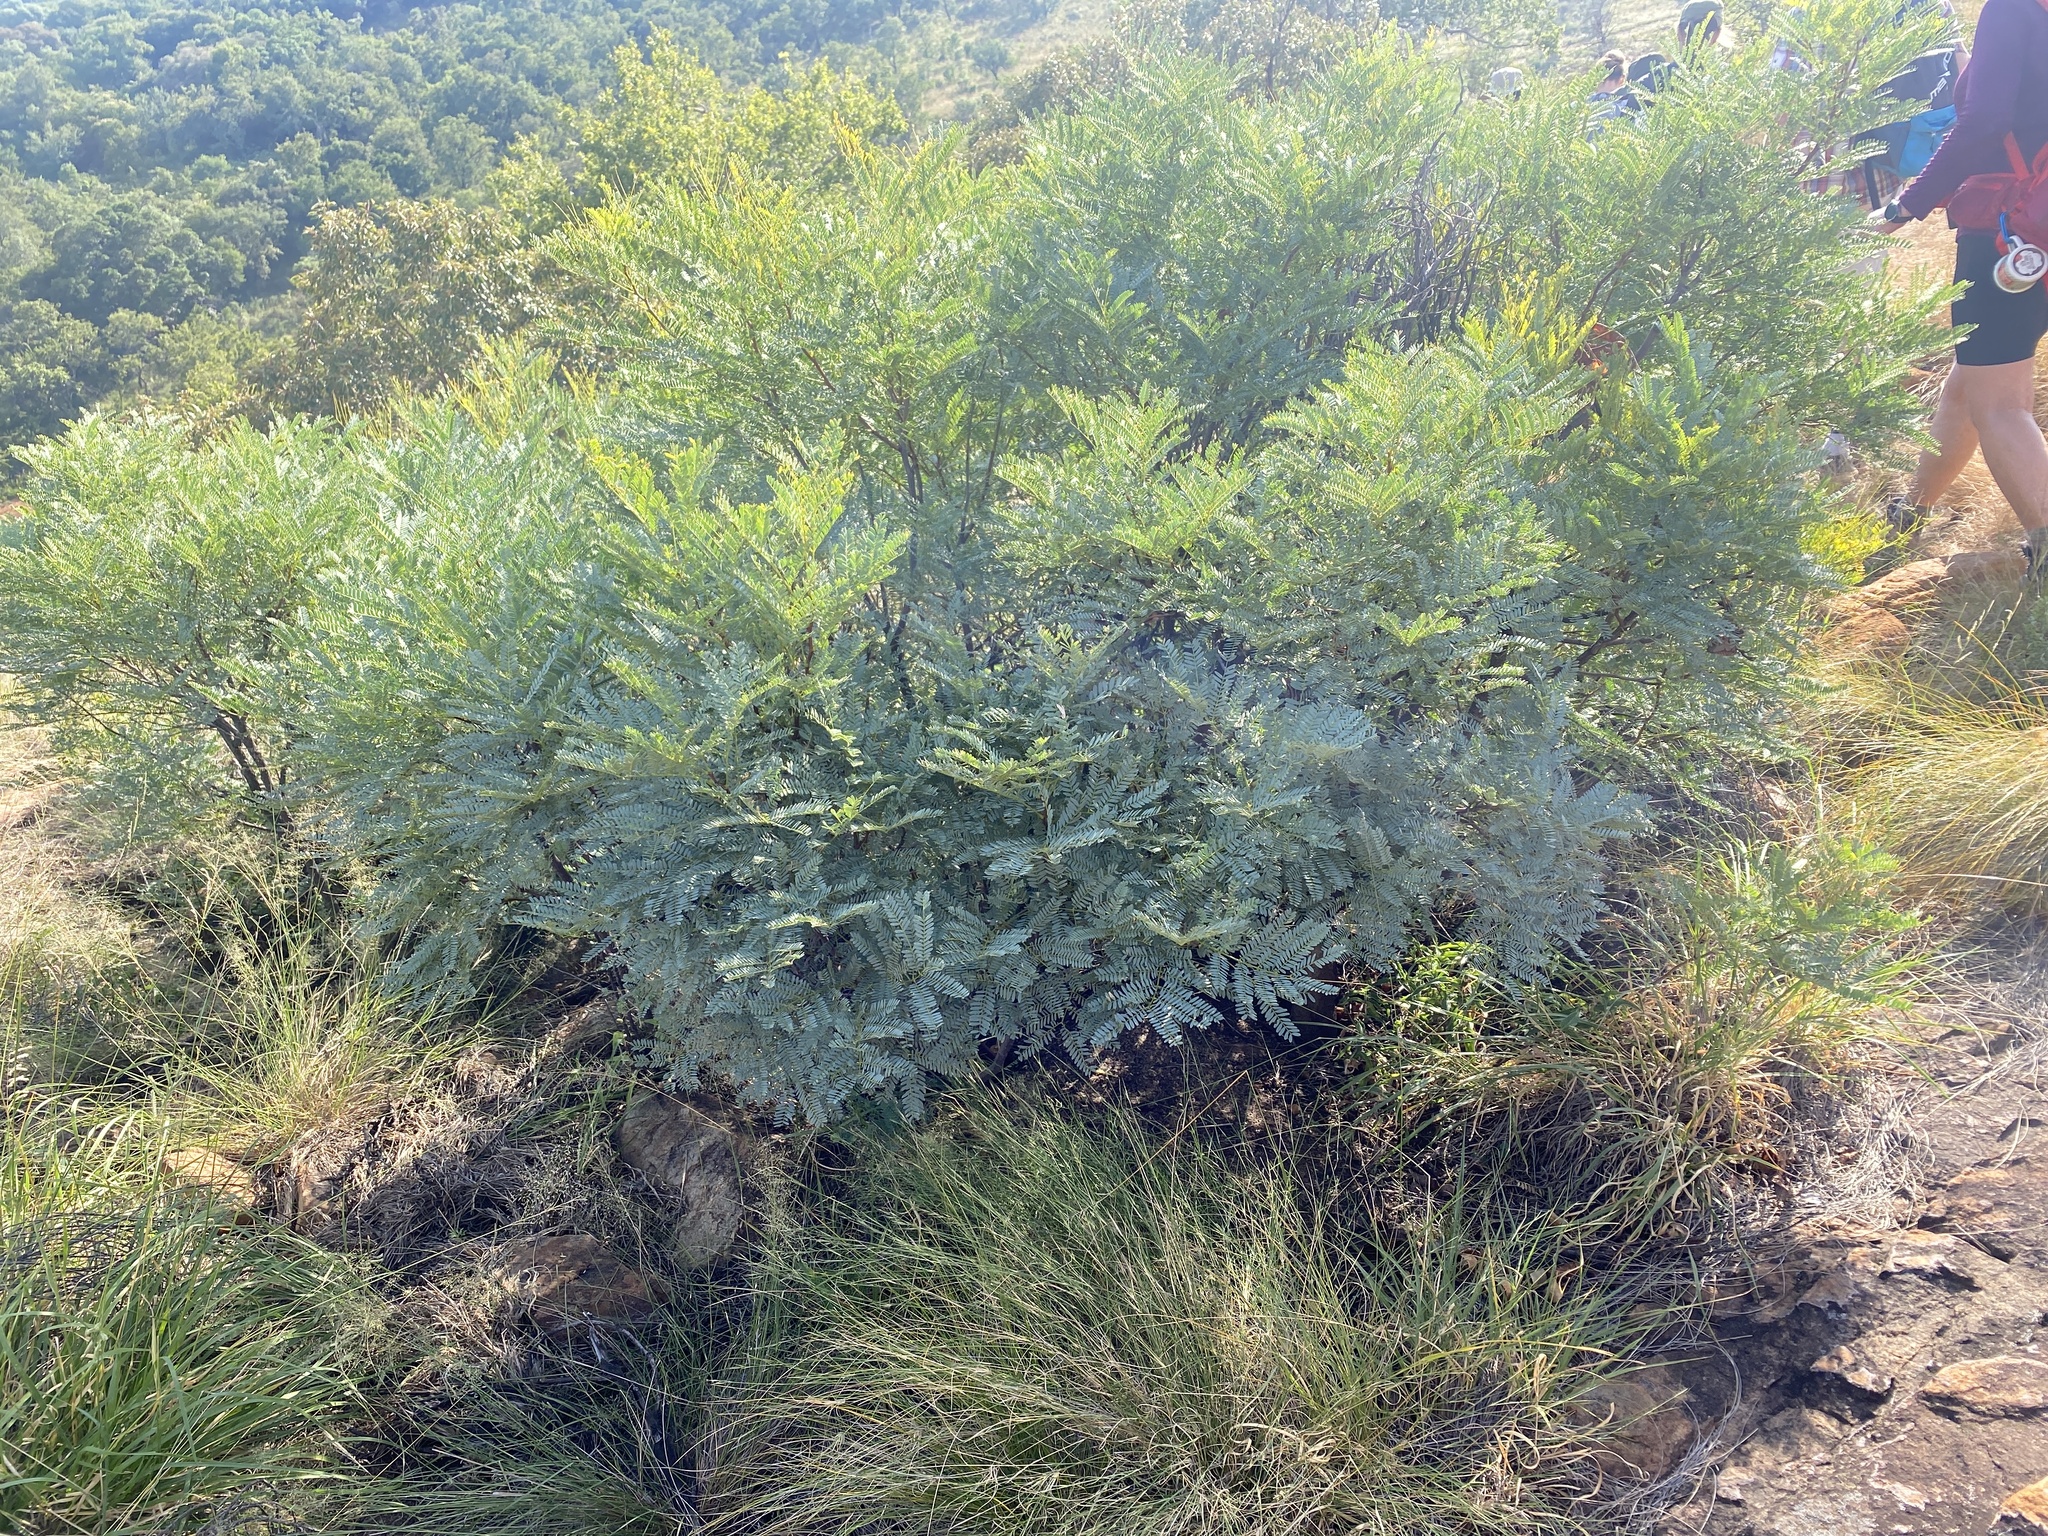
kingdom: Plantae
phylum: Tracheophyta
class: Magnoliopsida
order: Fabales
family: Fabaceae
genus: Elephantorrhiza
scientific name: Elephantorrhiza burkei
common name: Broad-pod elephant-root
